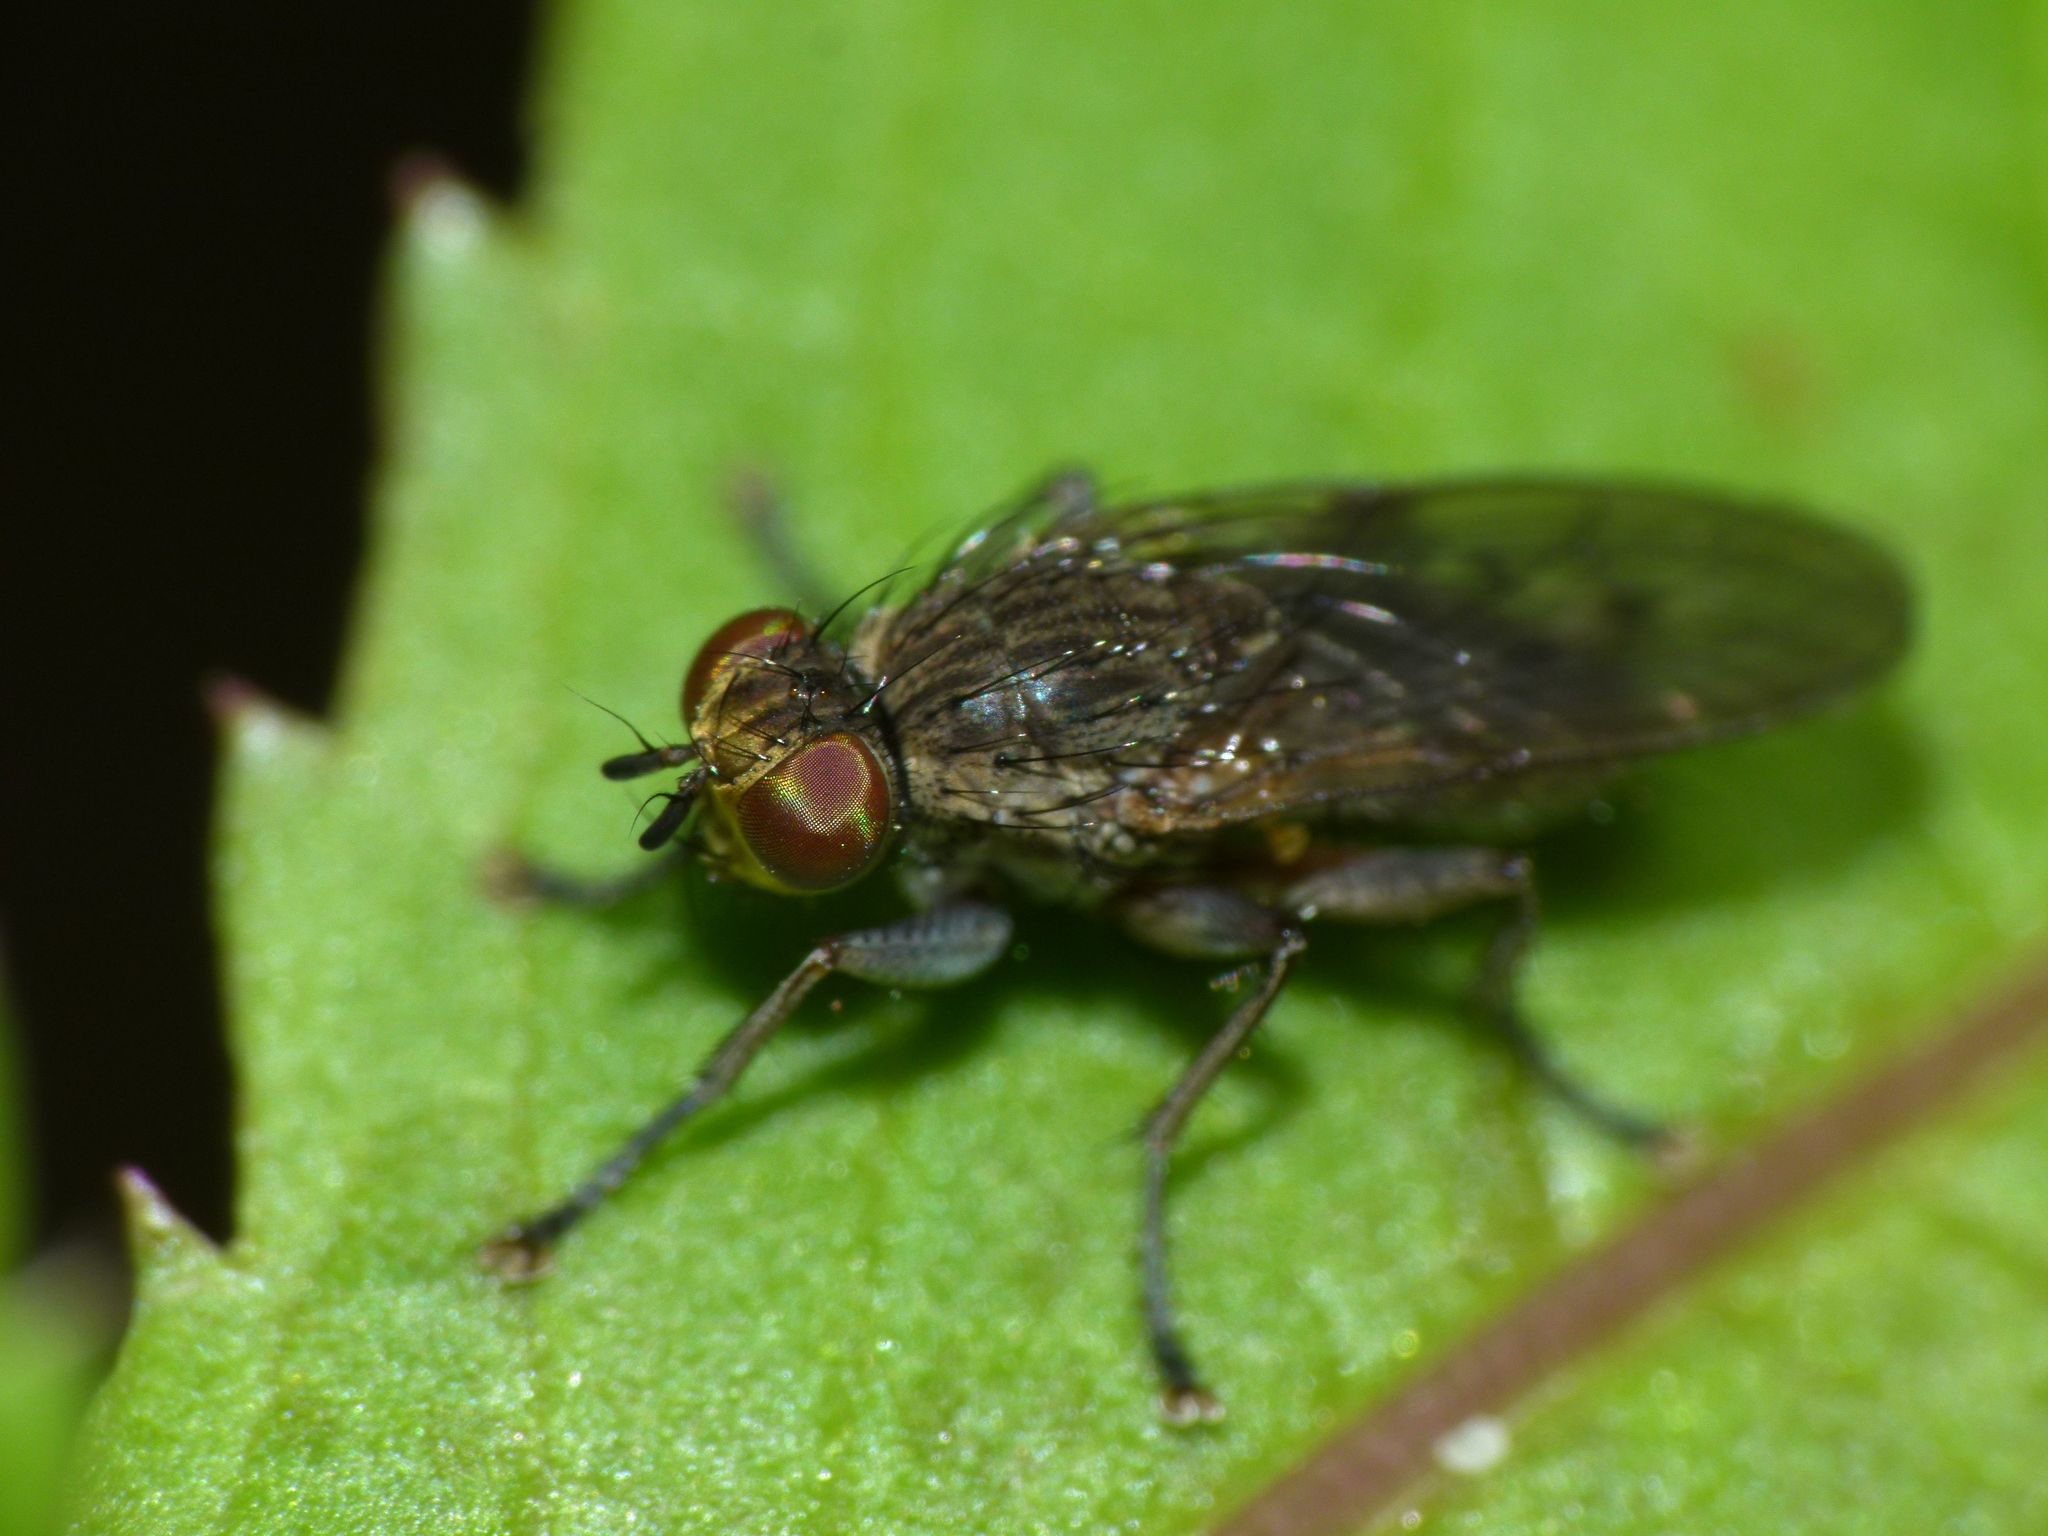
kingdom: Animalia
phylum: Arthropoda
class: Insecta
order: Diptera
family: Muscidae
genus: Limnohelina
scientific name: Limnohelina uniformis
